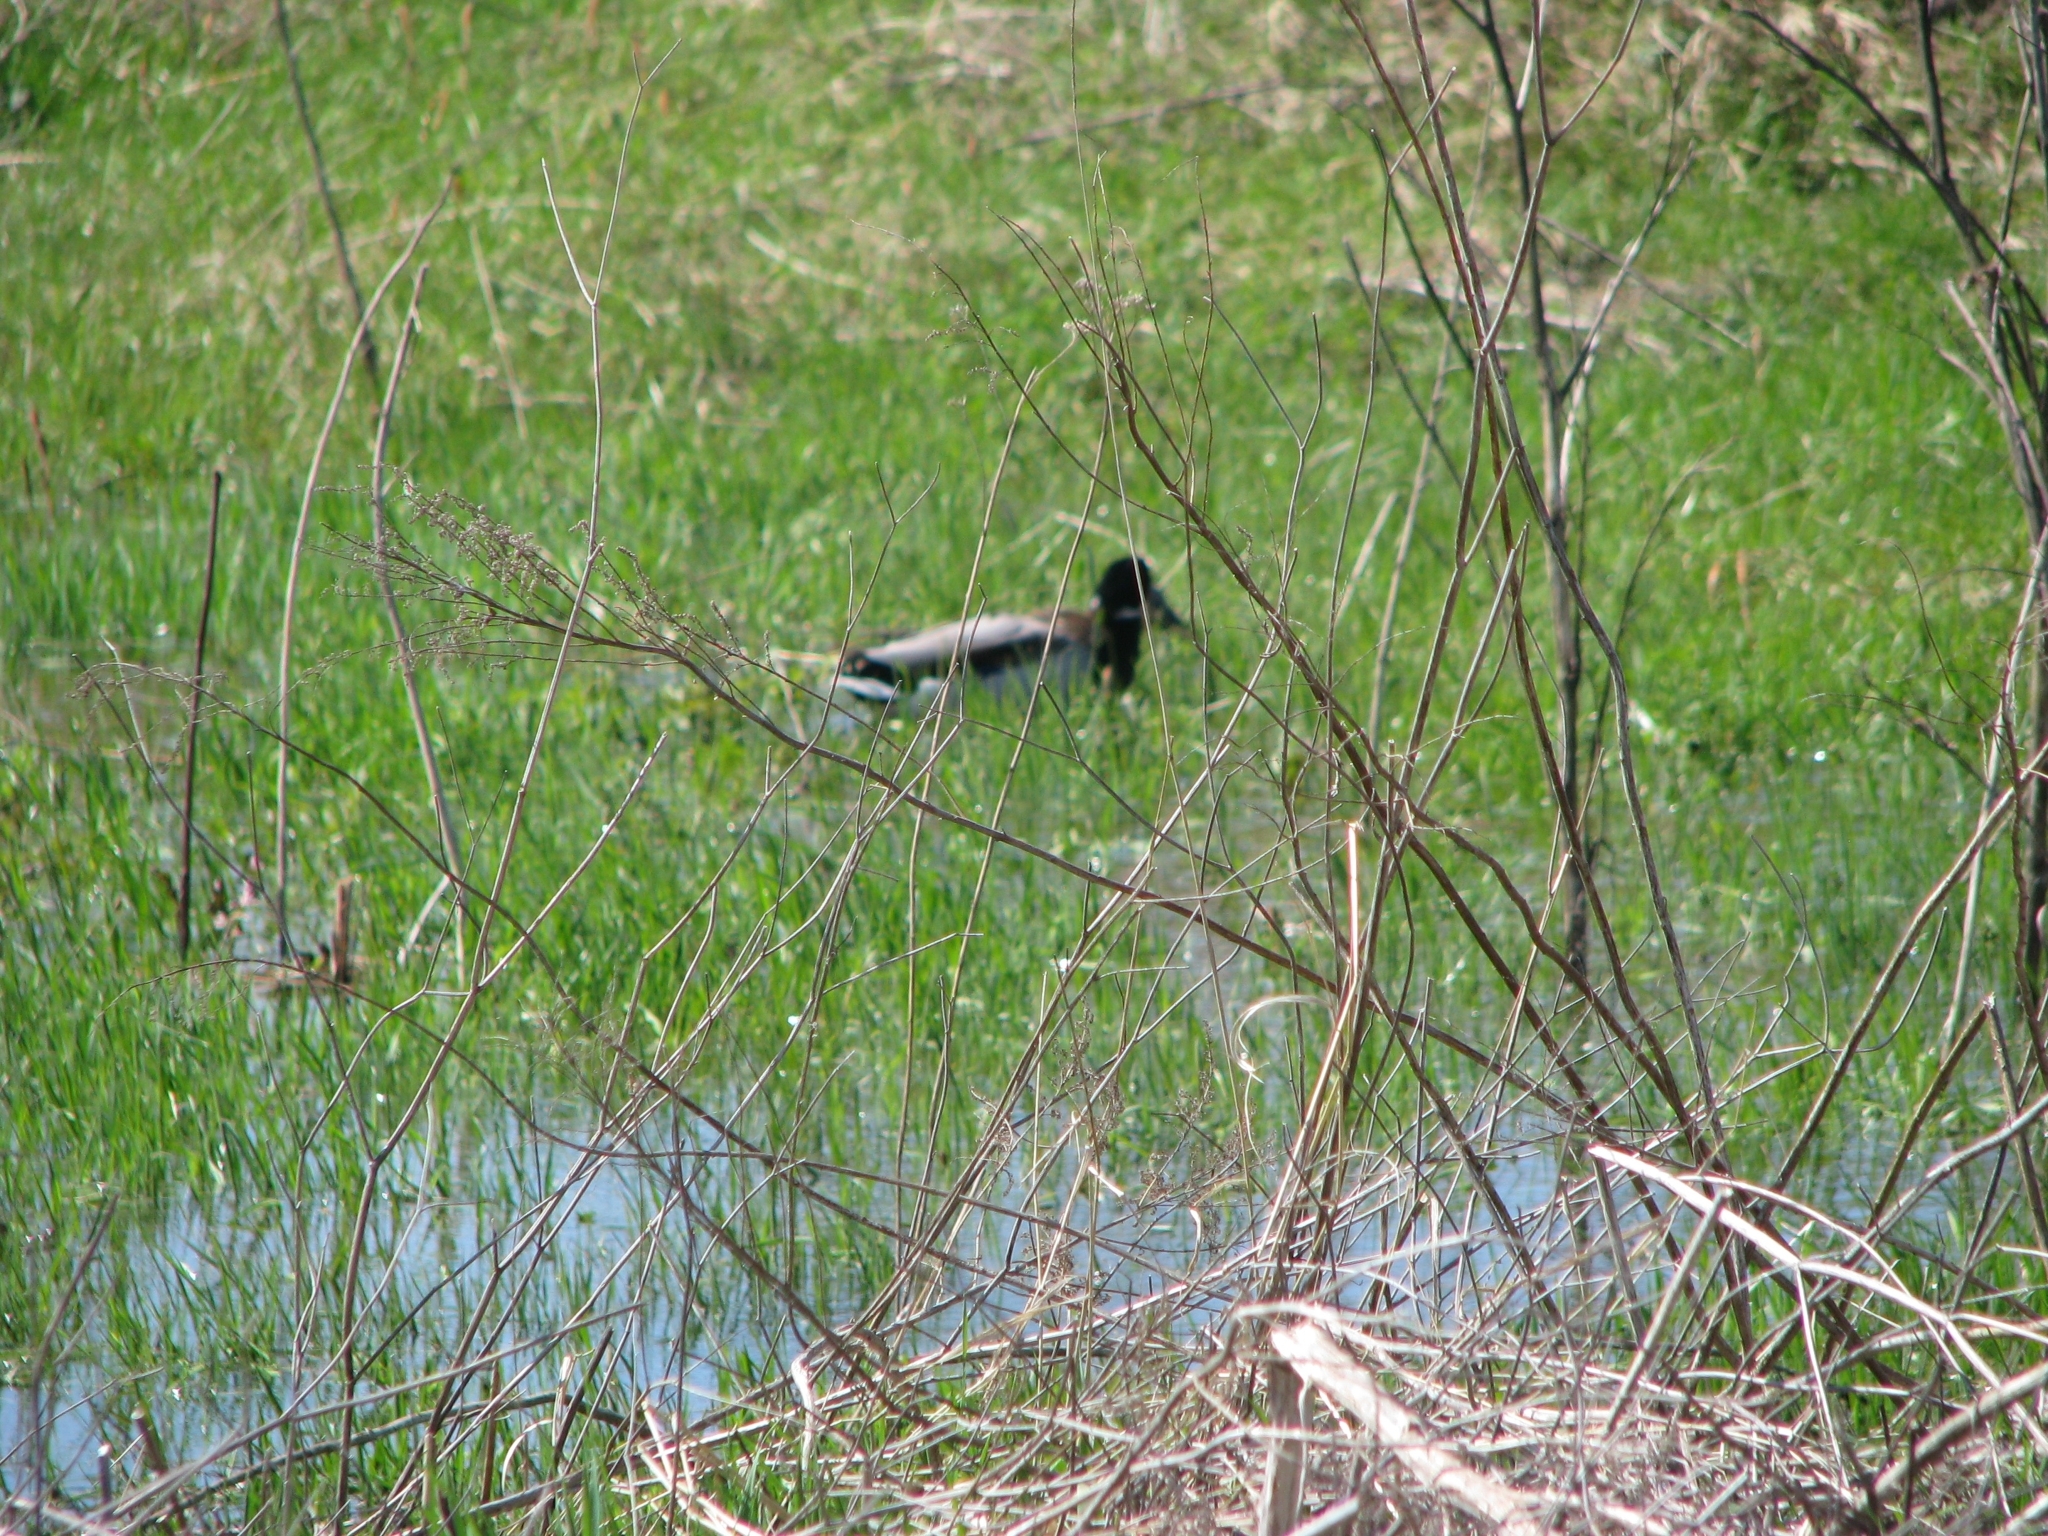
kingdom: Animalia
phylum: Chordata
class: Aves
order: Anseriformes
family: Anatidae
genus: Anas
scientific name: Anas platyrhynchos
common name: Mallard
